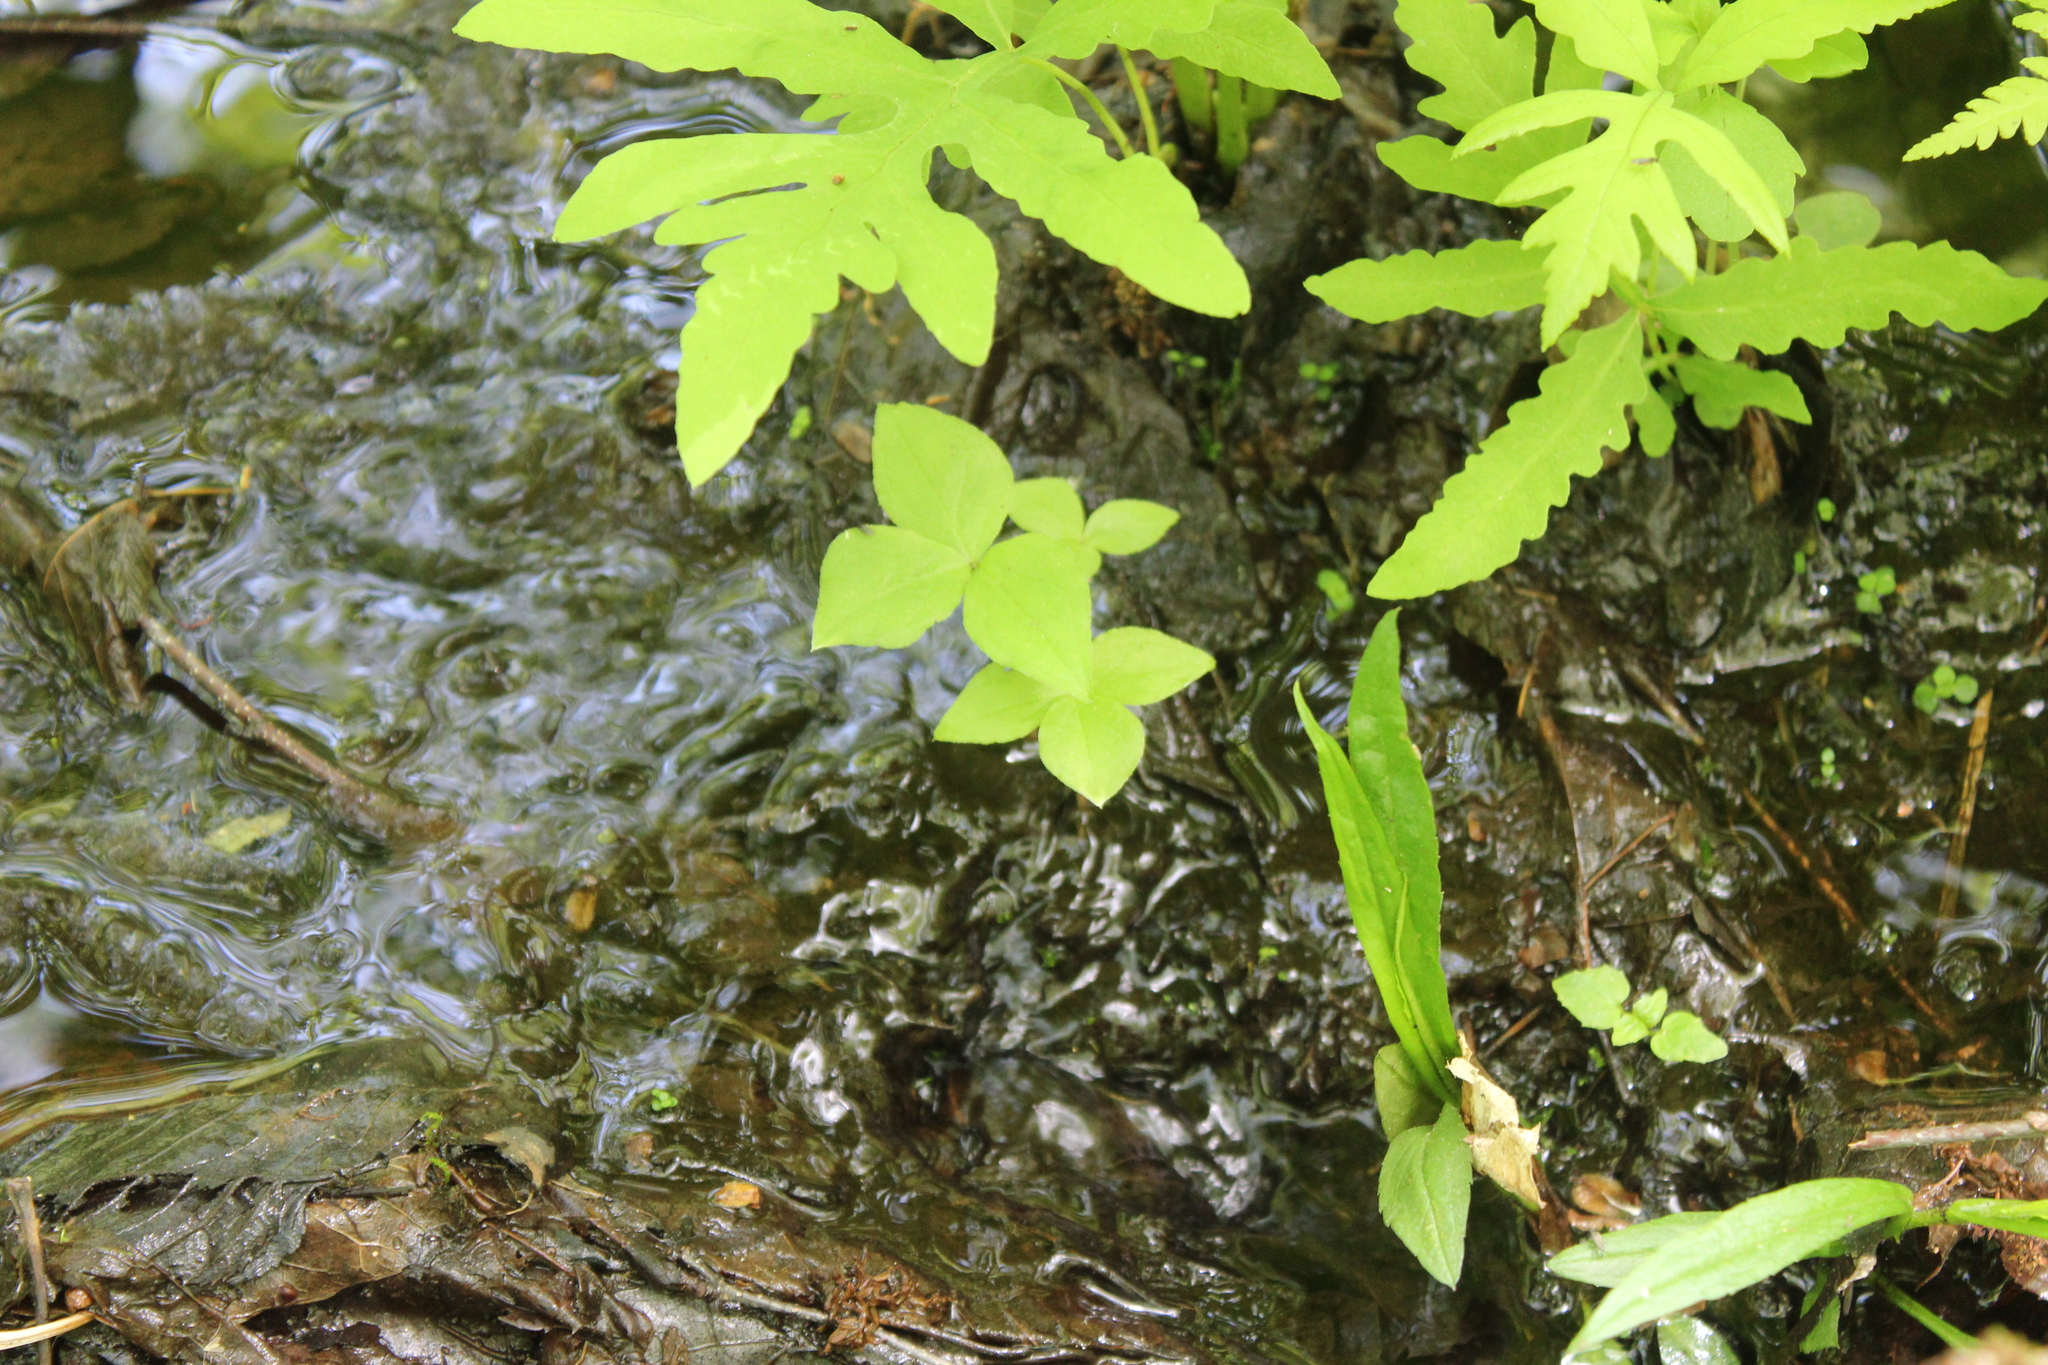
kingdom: Plantae
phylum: Tracheophyta
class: Liliopsida
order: Alismatales
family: Araceae
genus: Arisaema
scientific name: Arisaema triphyllum
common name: Jack-in-the-pulpit
